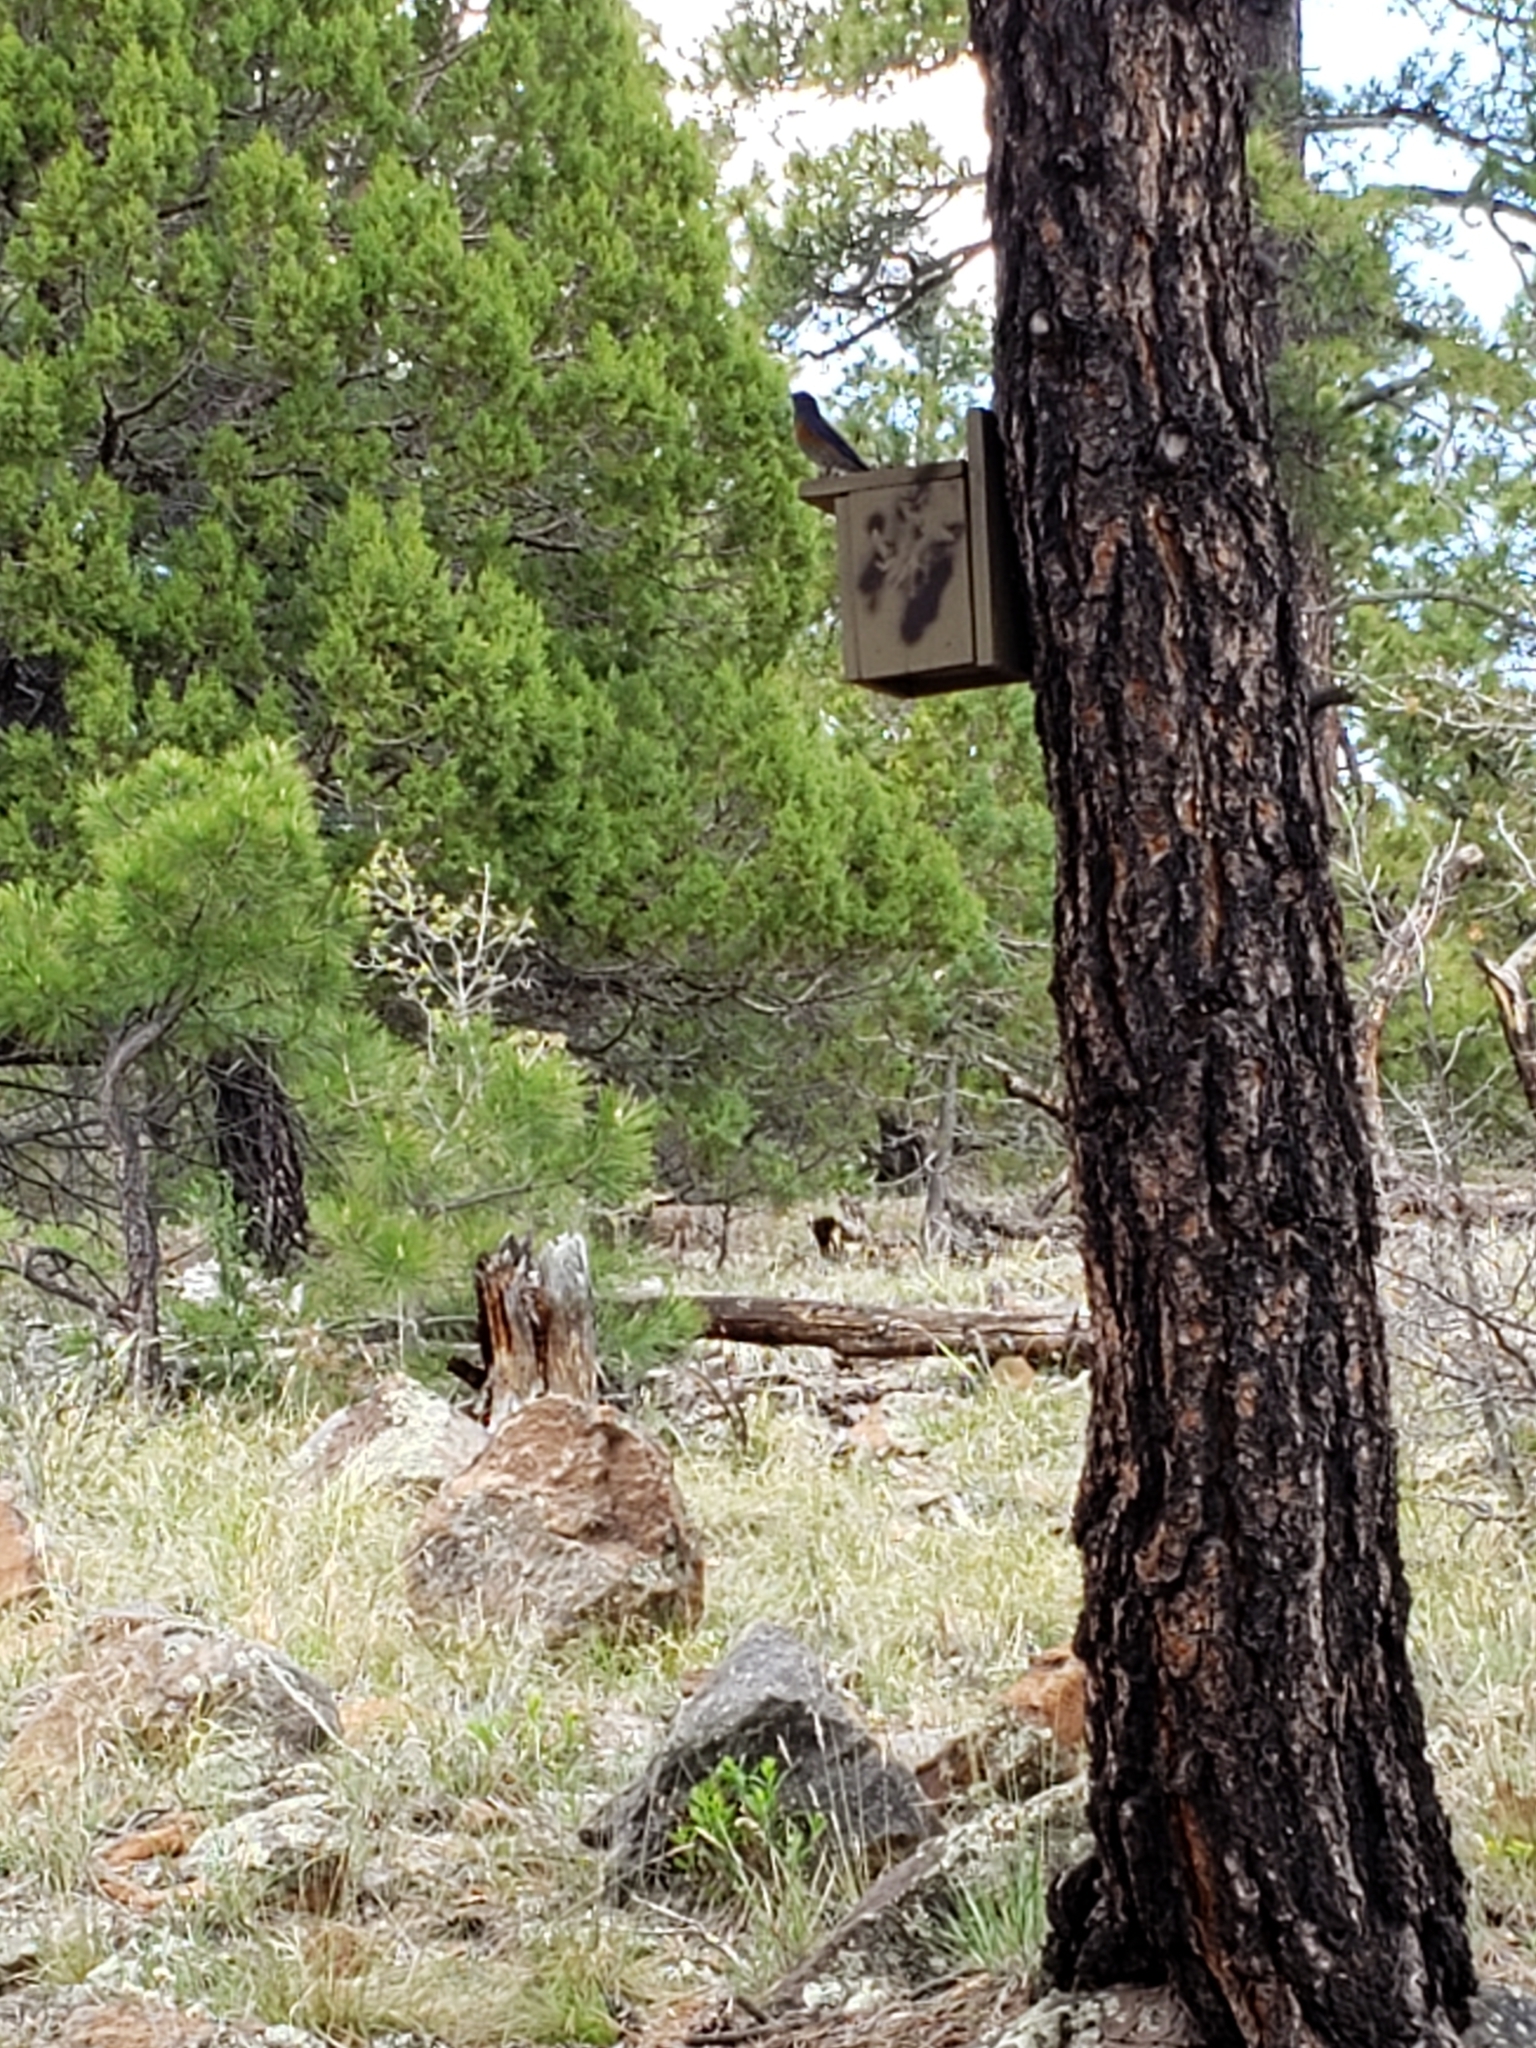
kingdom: Animalia
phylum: Chordata
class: Aves
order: Passeriformes
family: Turdidae
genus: Sialia
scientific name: Sialia mexicana
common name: Western bluebird
